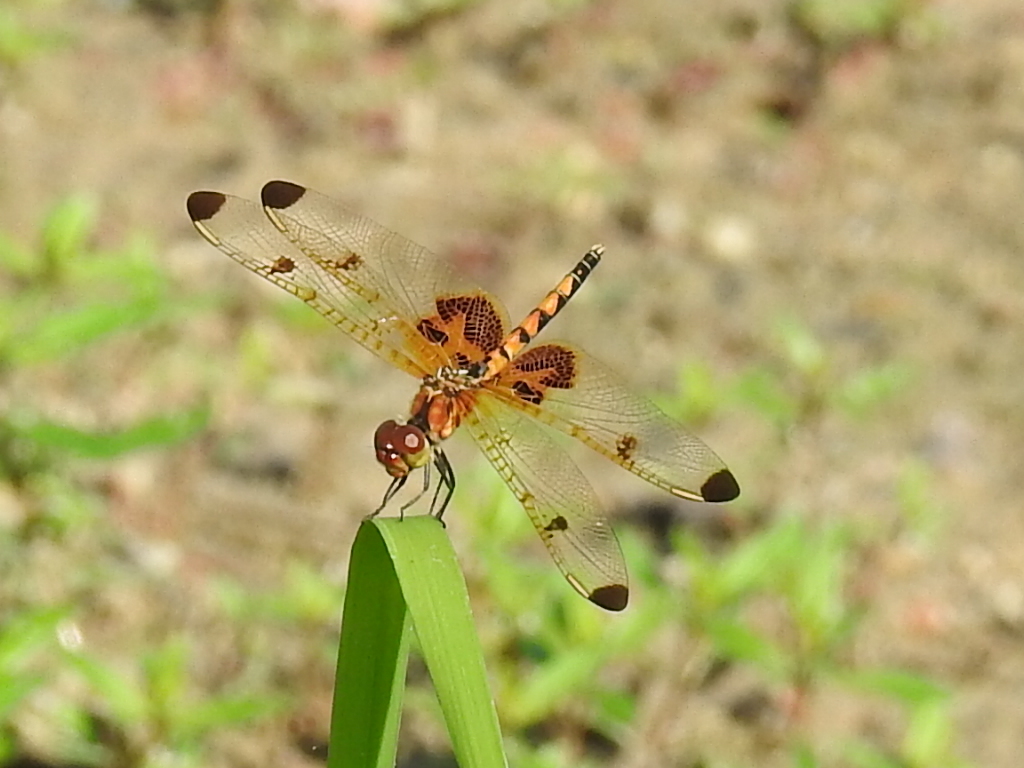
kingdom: Animalia
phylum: Arthropoda
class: Insecta
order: Odonata
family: Libellulidae
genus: Celithemis
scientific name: Celithemis elisa
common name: Calico pennant
